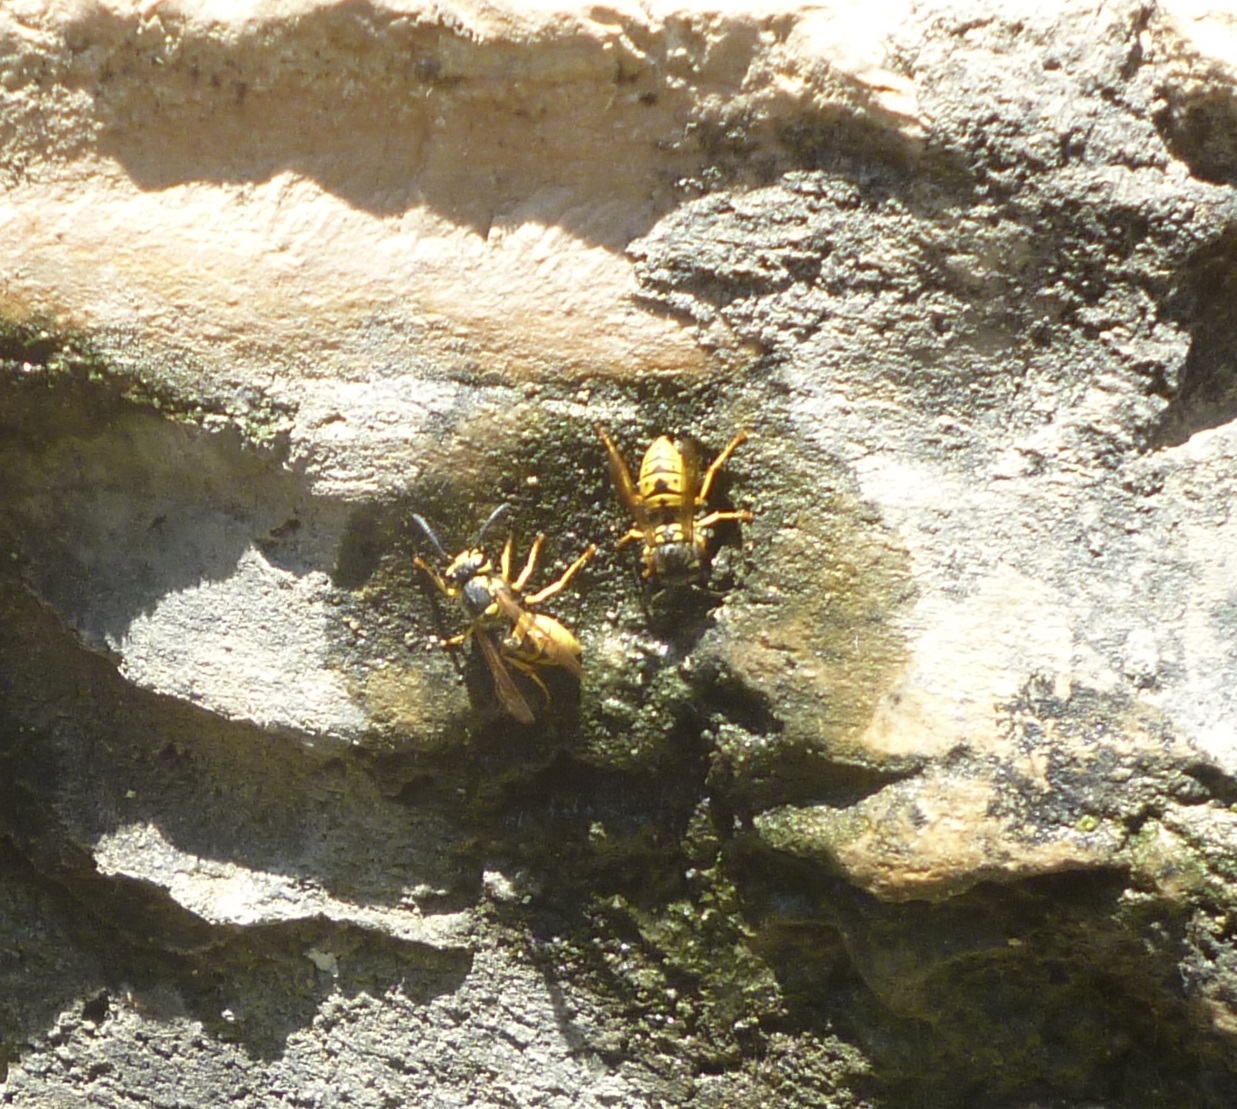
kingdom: Animalia
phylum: Arthropoda
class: Insecta
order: Hymenoptera
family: Vespidae
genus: Vespula
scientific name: Vespula germanica
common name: German wasp
